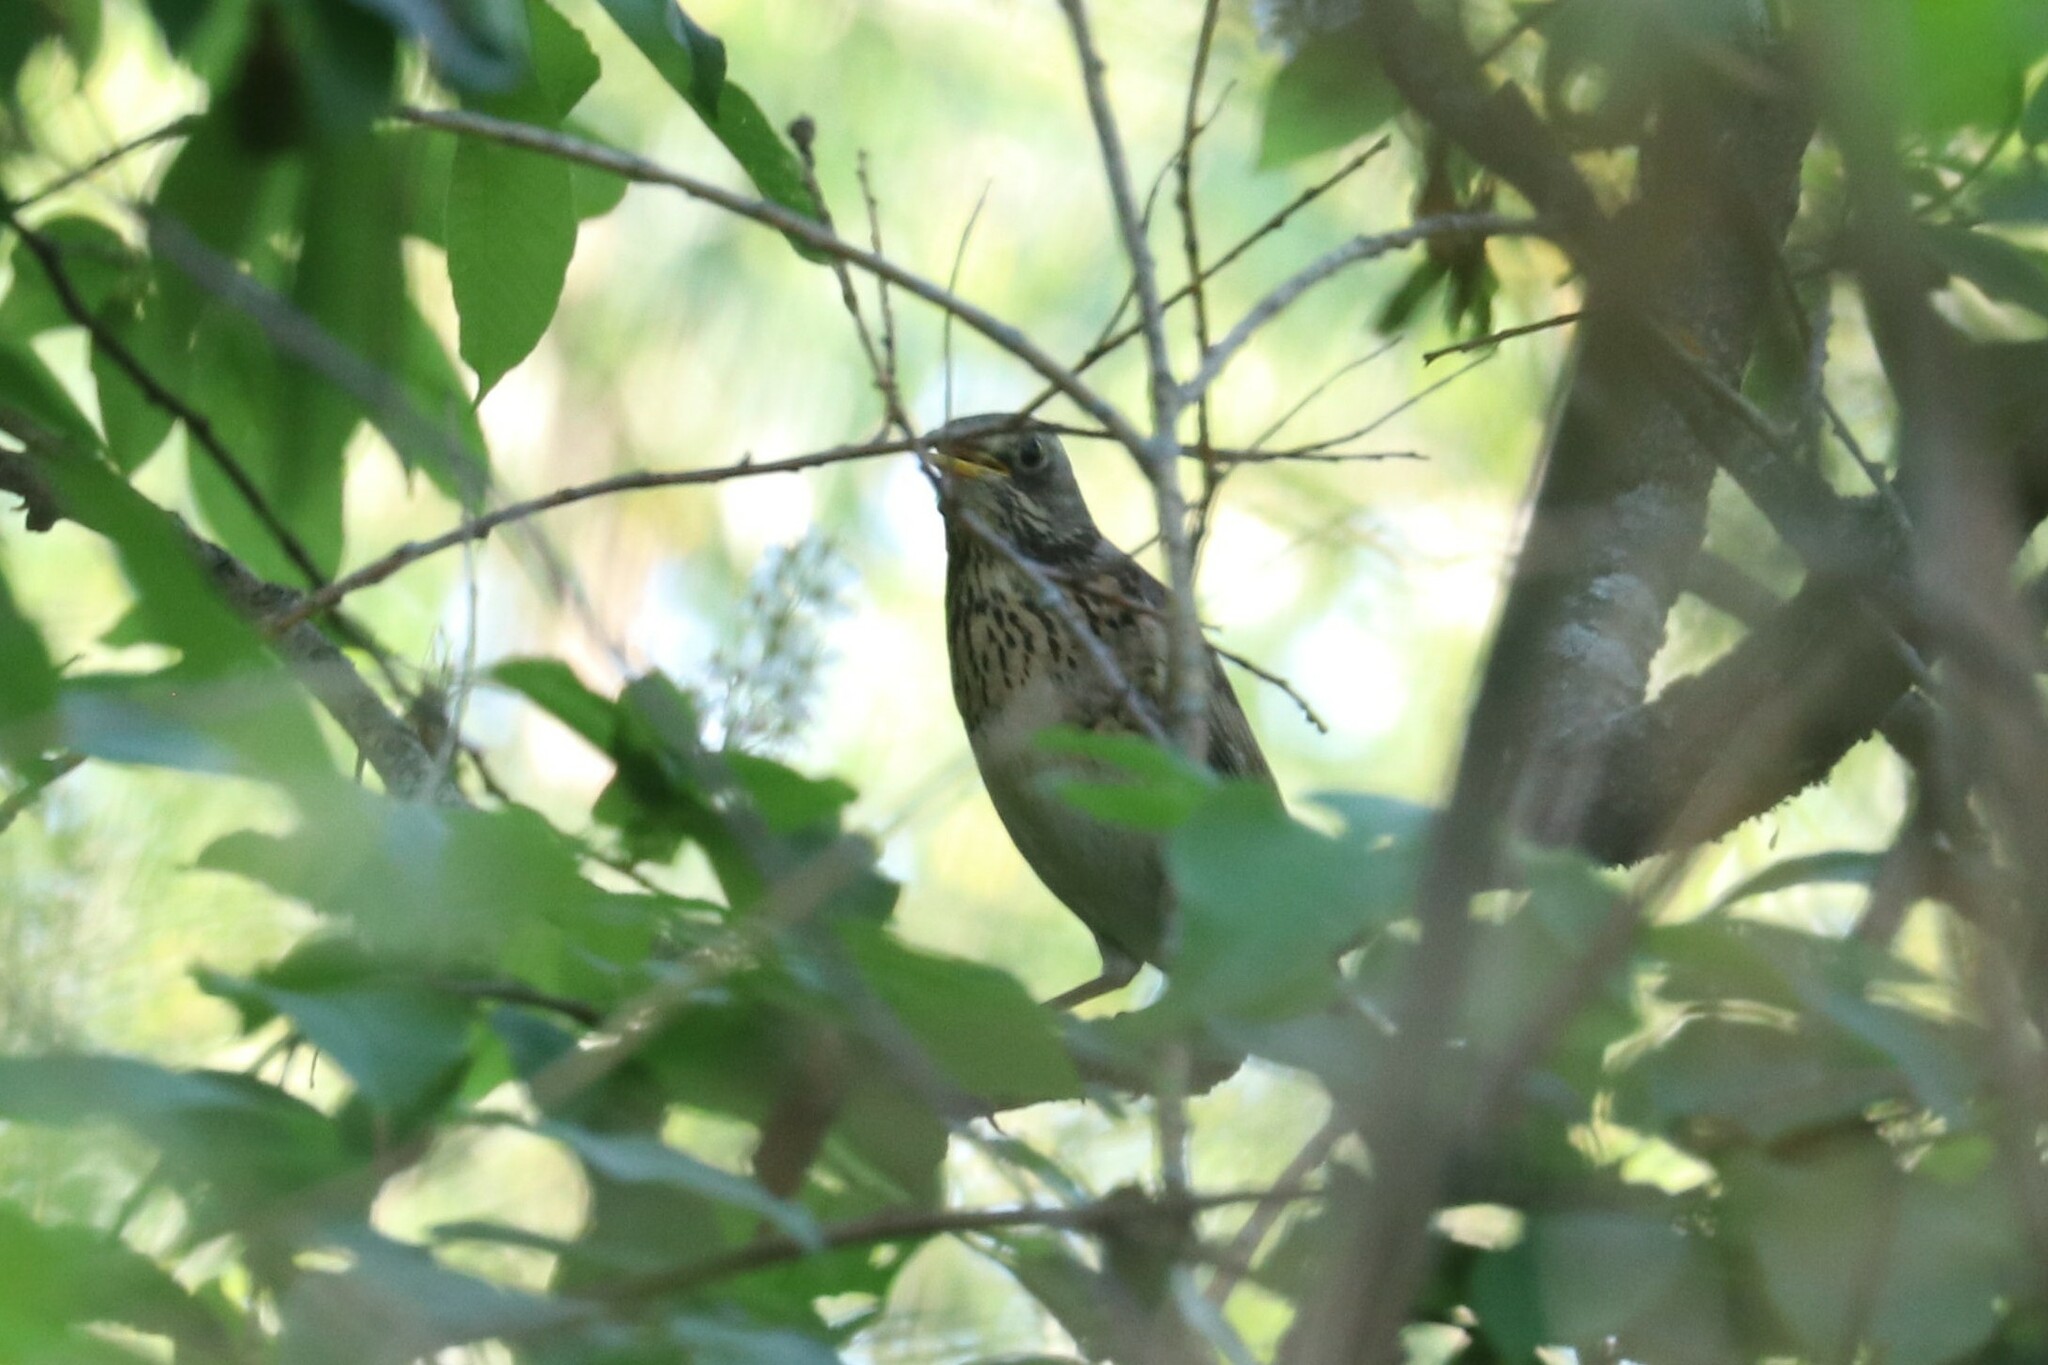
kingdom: Animalia
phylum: Chordata
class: Aves
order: Passeriformes
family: Turdidae
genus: Turdus
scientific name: Turdus pilaris
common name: Fieldfare
